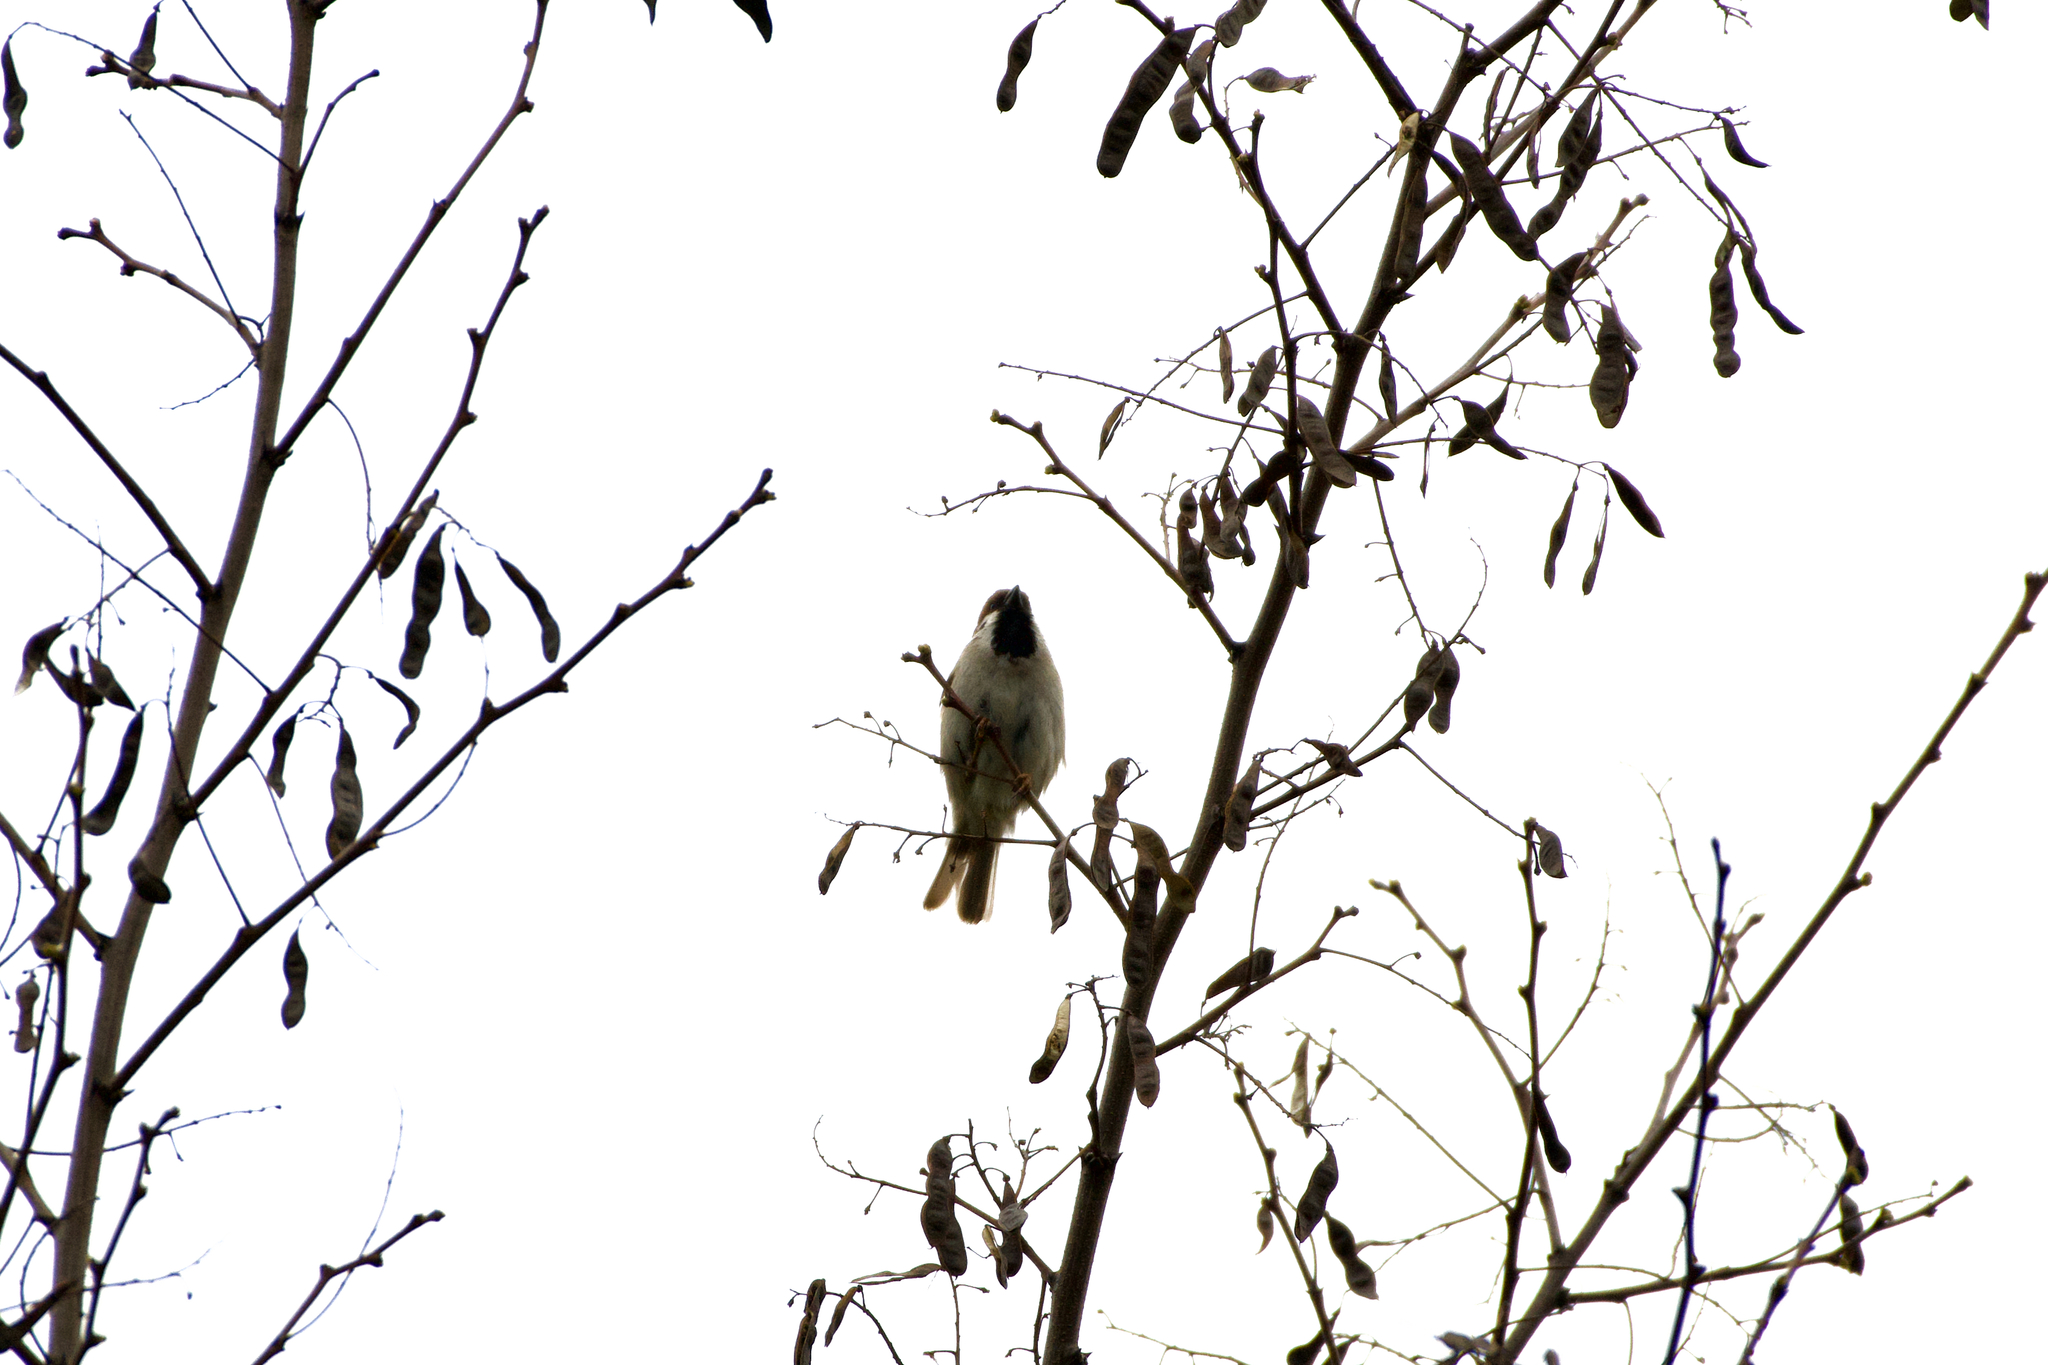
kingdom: Animalia
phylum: Chordata
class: Aves
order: Passeriformes
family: Passeridae
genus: Passer
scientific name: Passer montanus
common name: Eurasian tree sparrow
